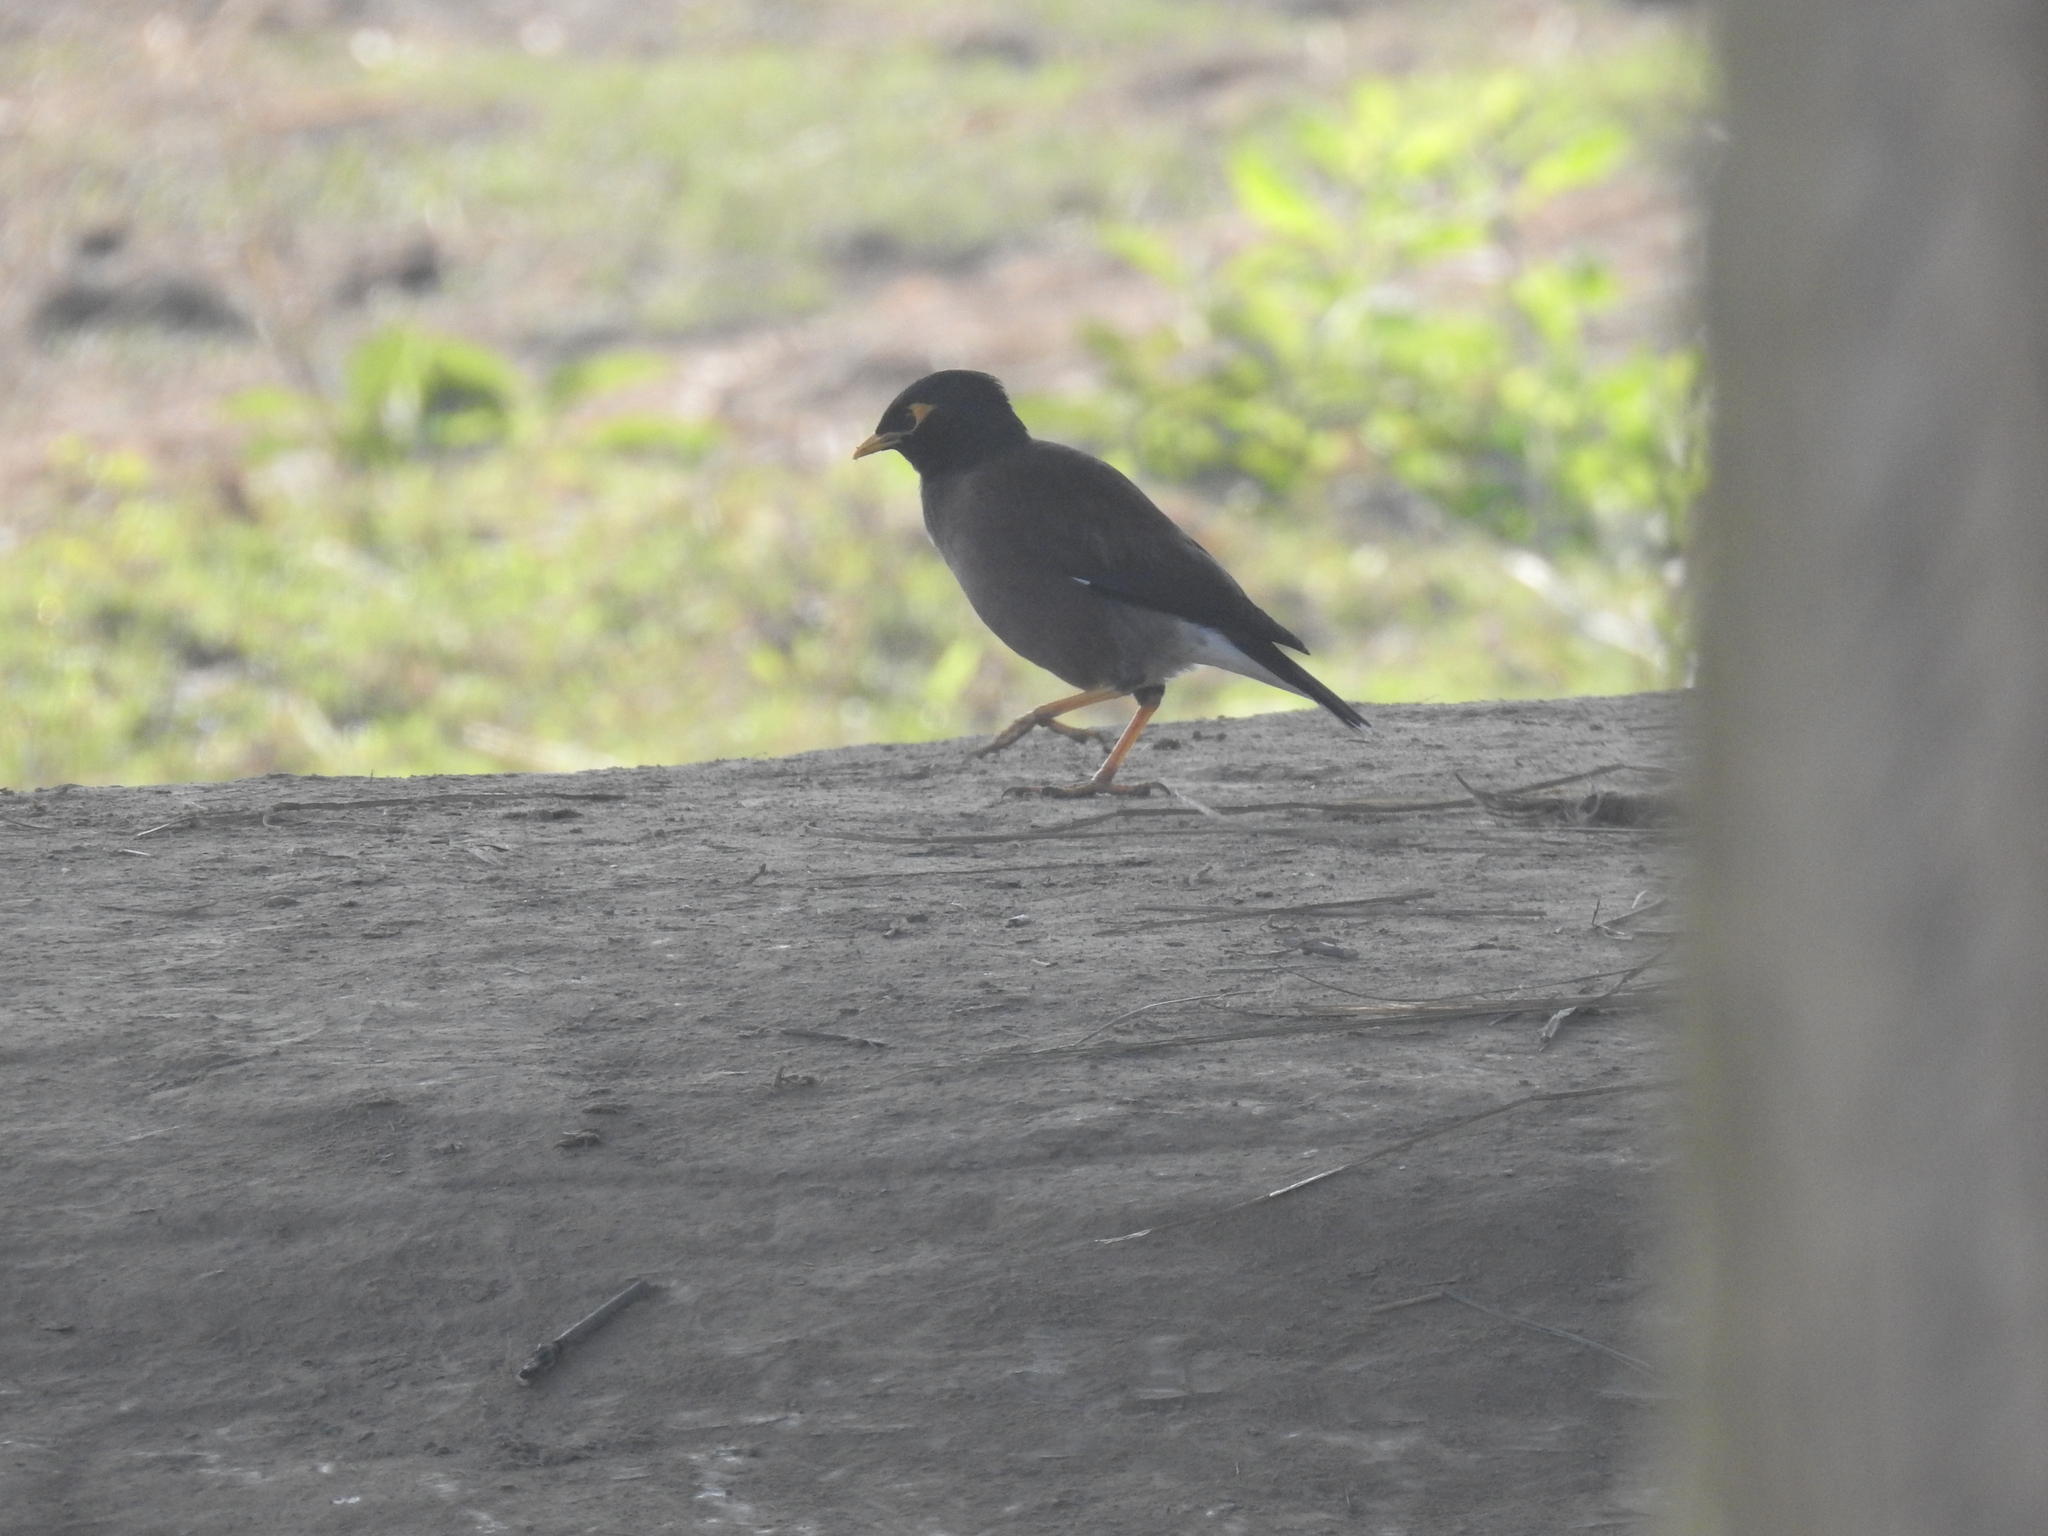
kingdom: Animalia
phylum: Chordata
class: Aves
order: Passeriformes
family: Sturnidae
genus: Acridotheres
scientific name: Acridotheres tristis
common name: Common myna
